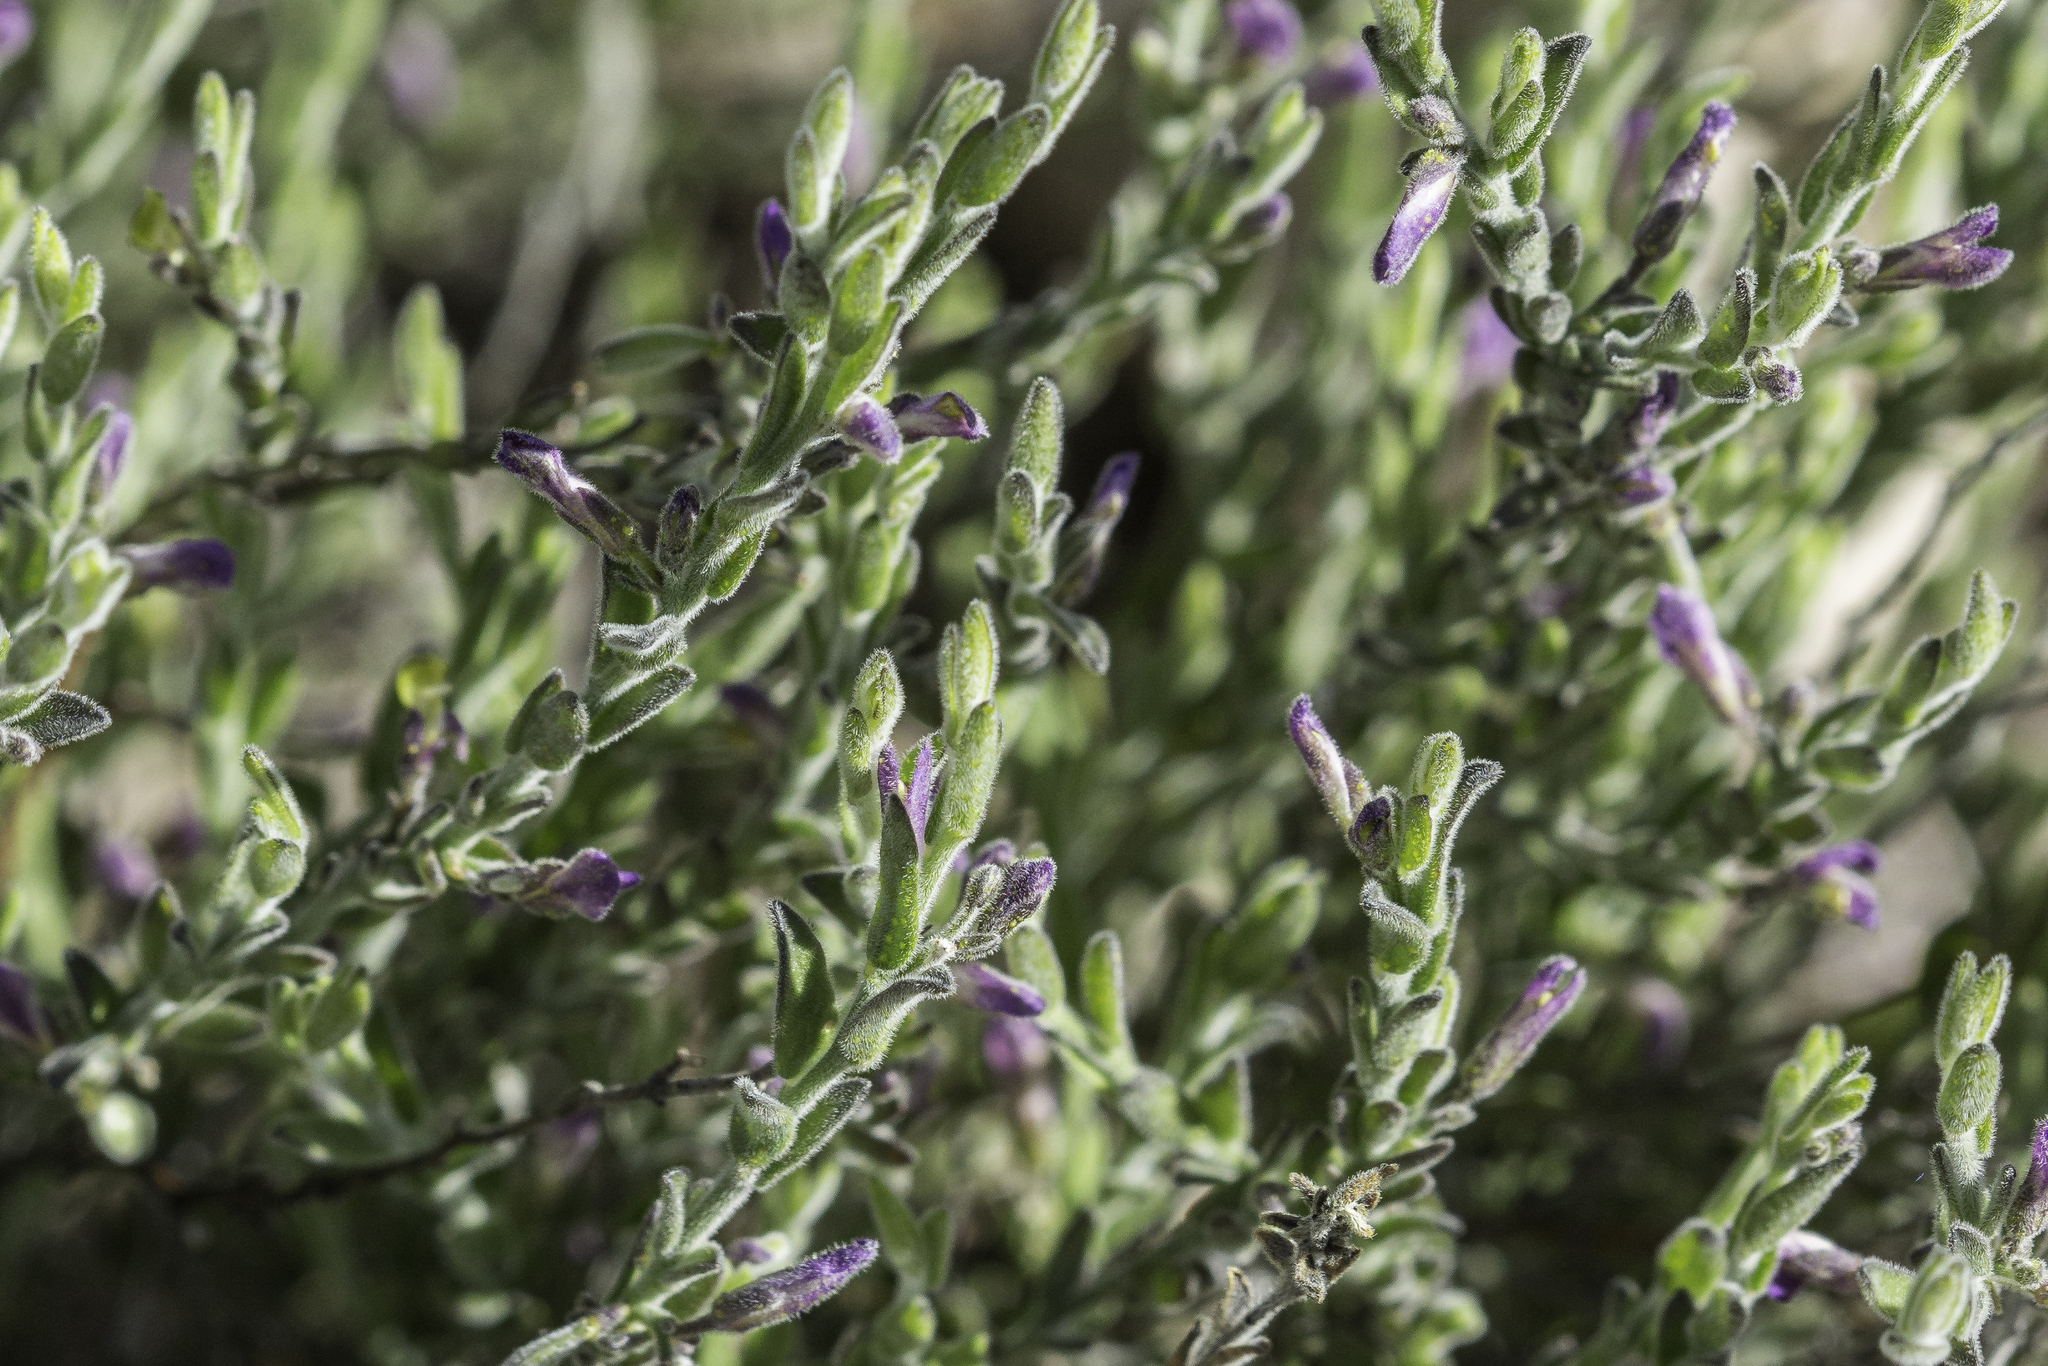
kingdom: Plantae
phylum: Tracheophyta
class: Magnoliopsida
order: Fabales
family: Polygalaceae
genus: Hebecarpa
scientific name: Hebecarpa macradenia
